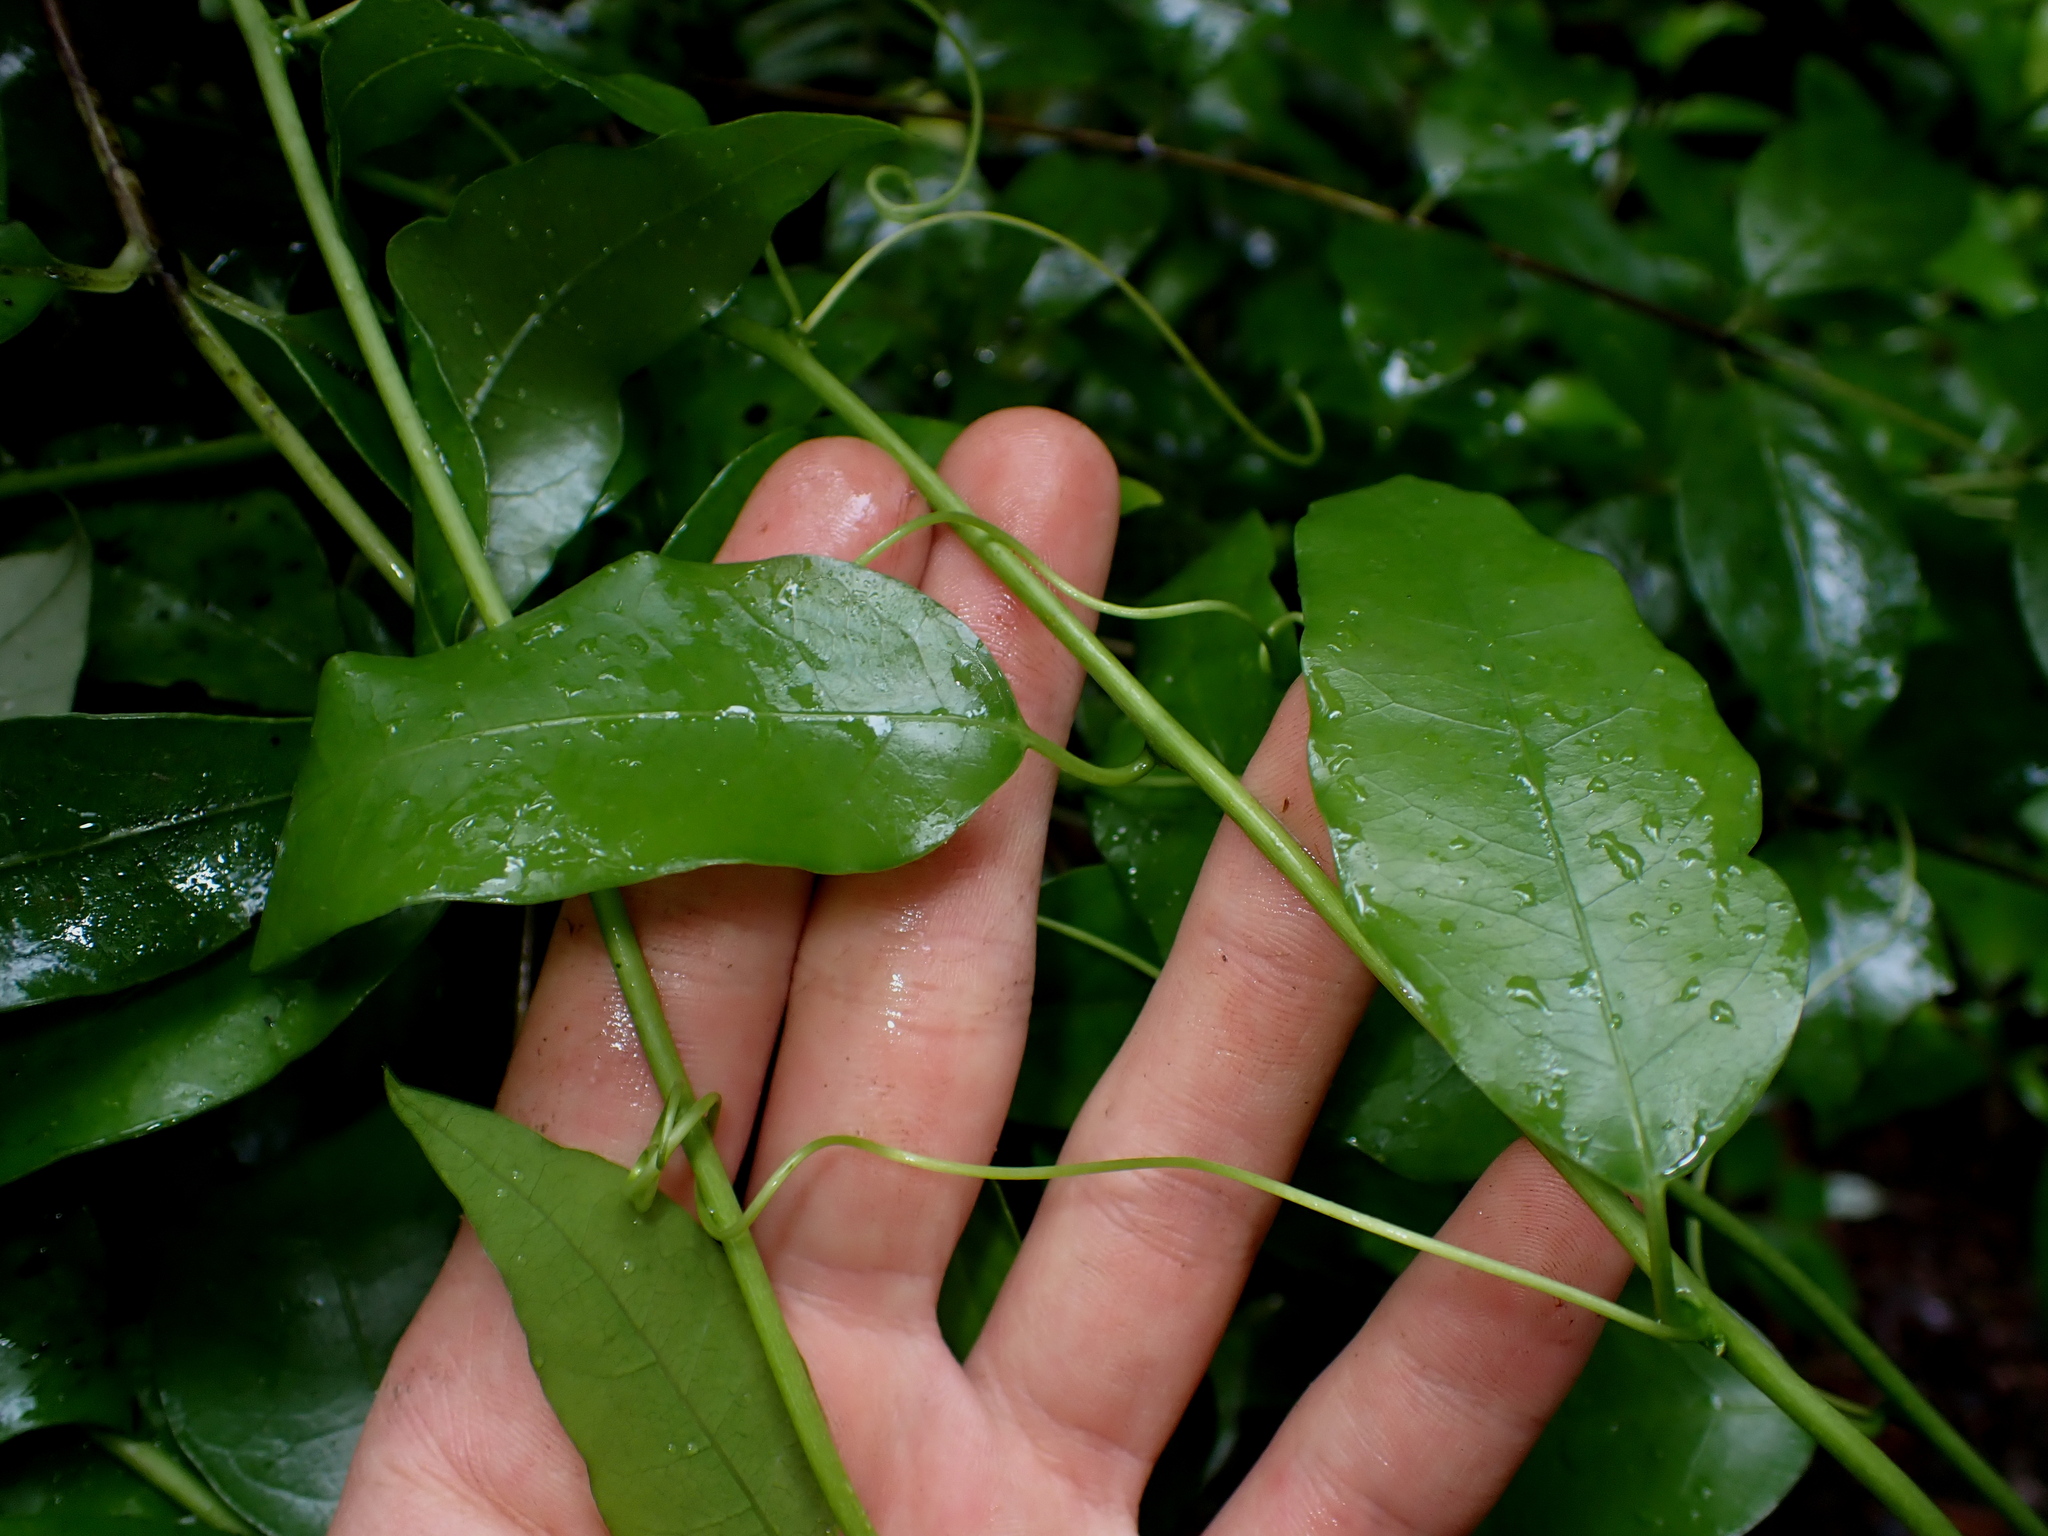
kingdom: Plantae
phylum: Tracheophyta
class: Magnoliopsida
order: Malpighiales
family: Passifloraceae
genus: Passiflora
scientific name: Passiflora tetrandra
